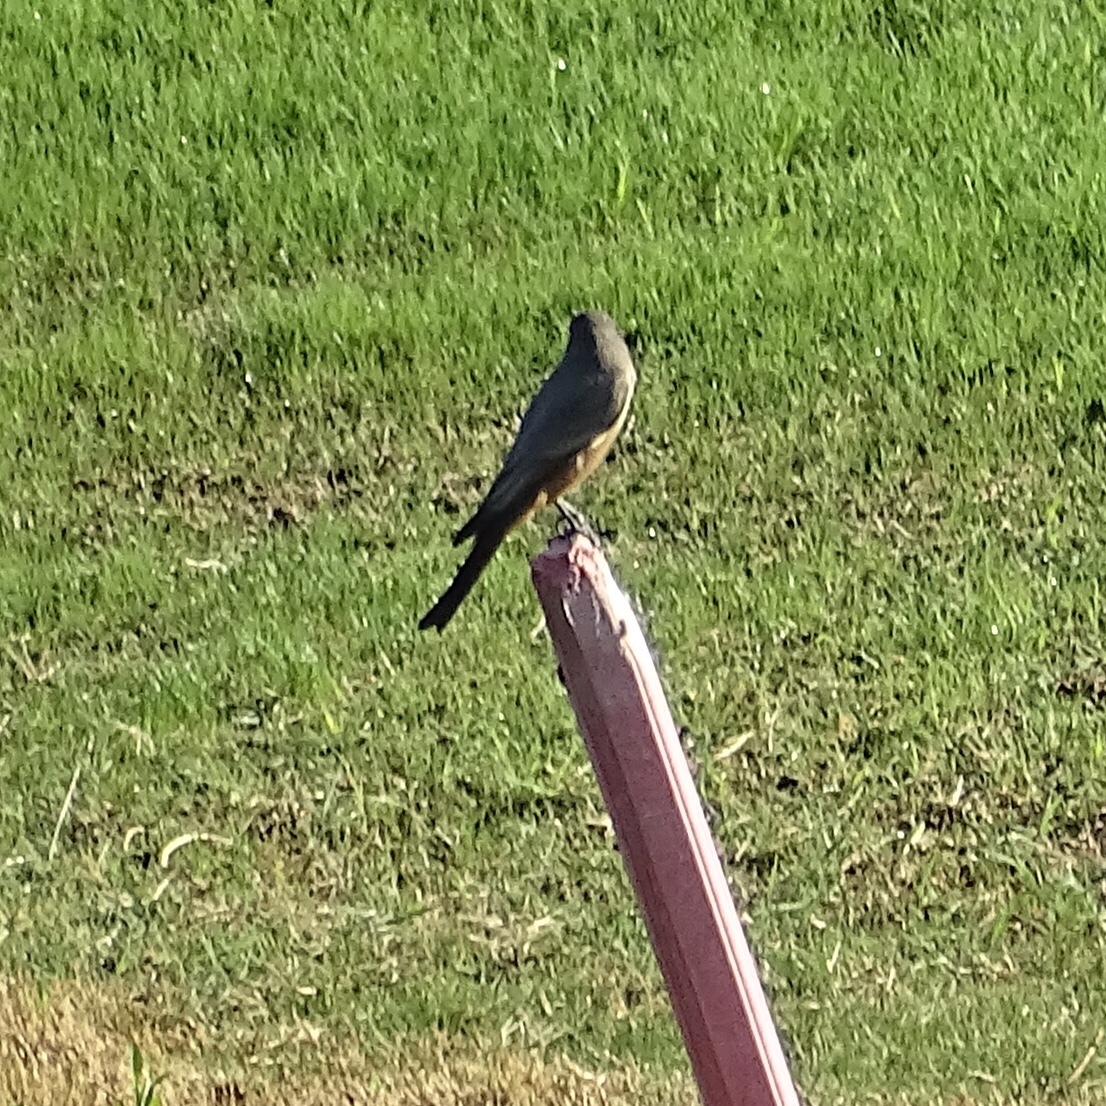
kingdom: Animalia
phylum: Chordata
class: Aves
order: Passeriformes
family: Tyrannidae
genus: Sayornis
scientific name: Sayornis saya
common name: Say's phoebe
